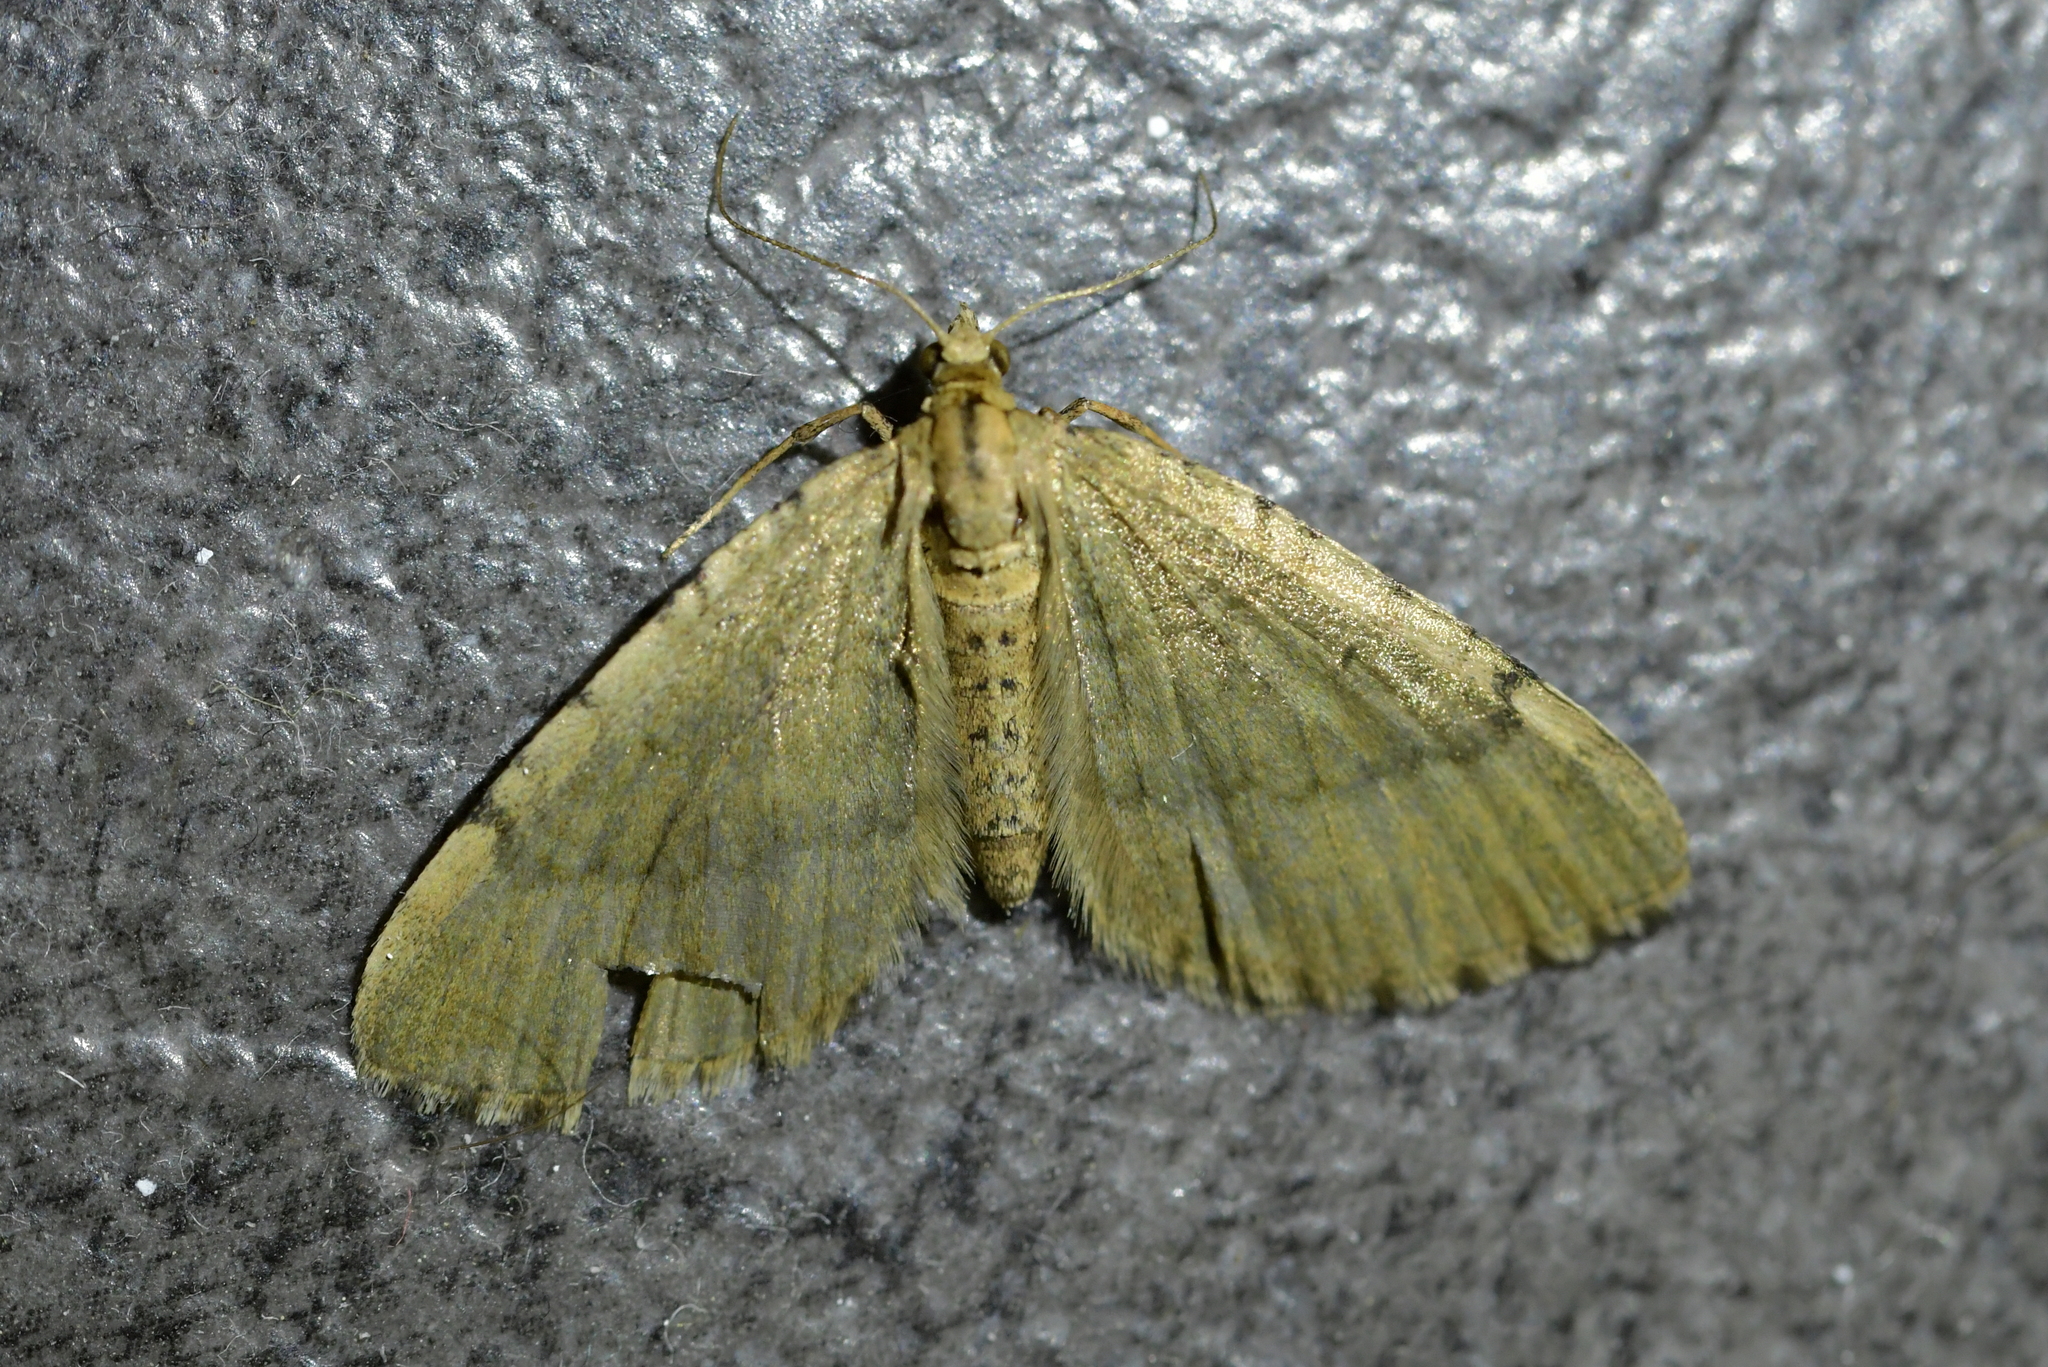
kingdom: Animalia
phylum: Arthropoda
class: Insecta
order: Lepidoptera
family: Geometridae
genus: Asaphodes
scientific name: Asaphodes aegrota
